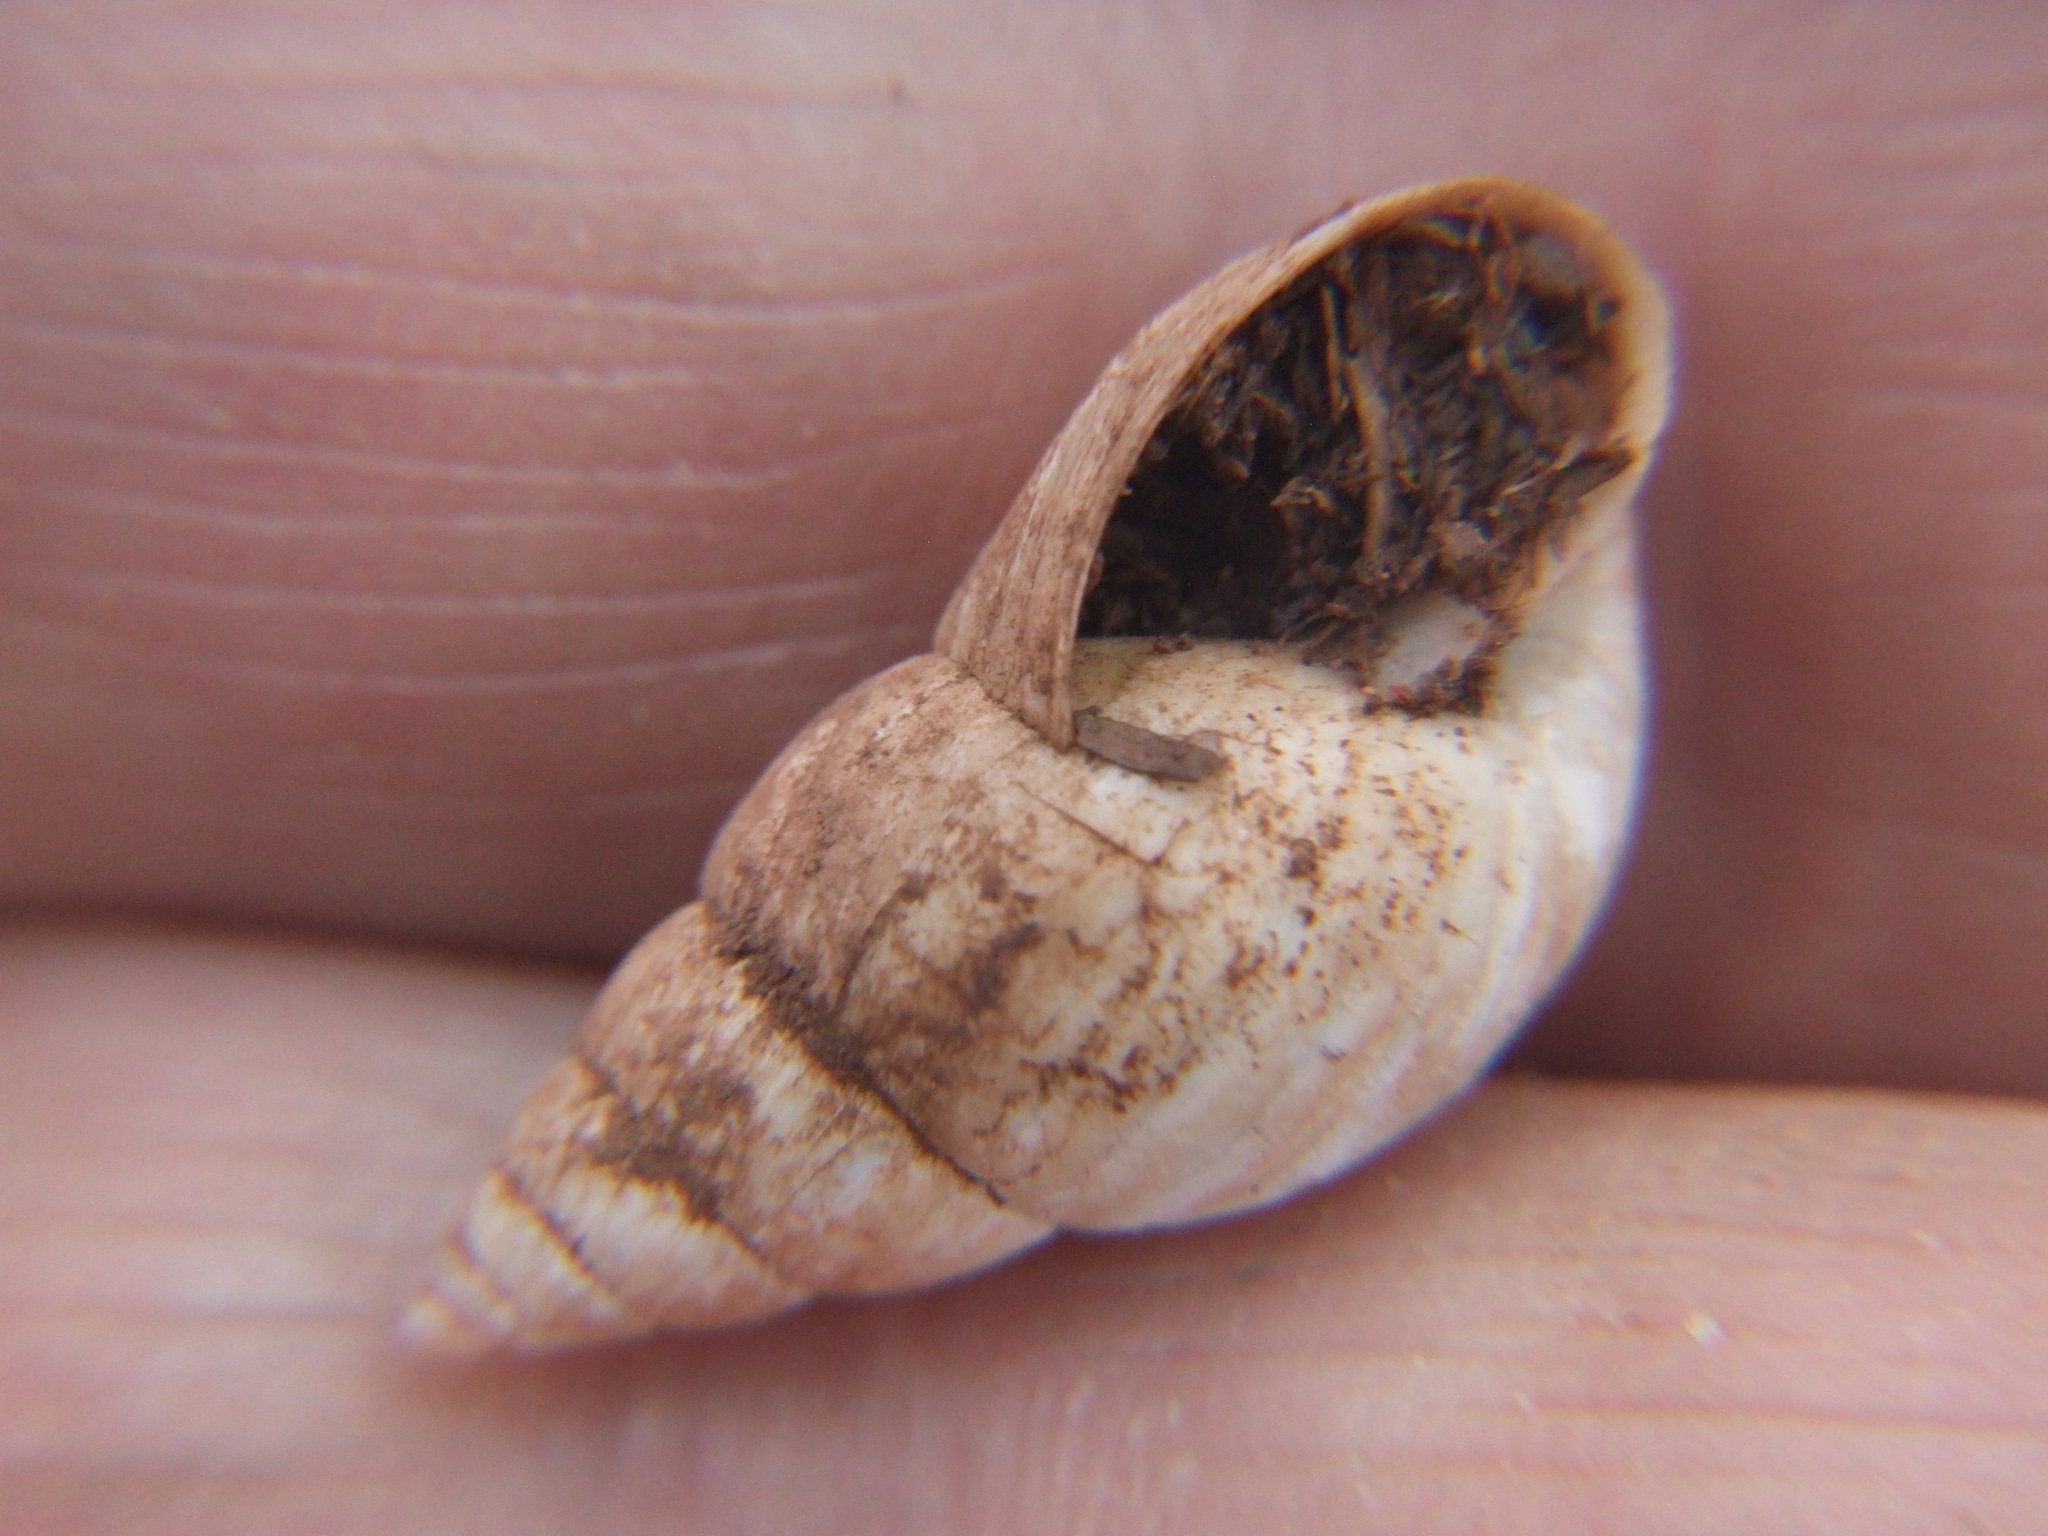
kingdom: Animalia
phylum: Mollusca
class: Gastropoda
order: Stylommatophora
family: Bulimulidae
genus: Bostryx
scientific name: Bostryx virgultorum
